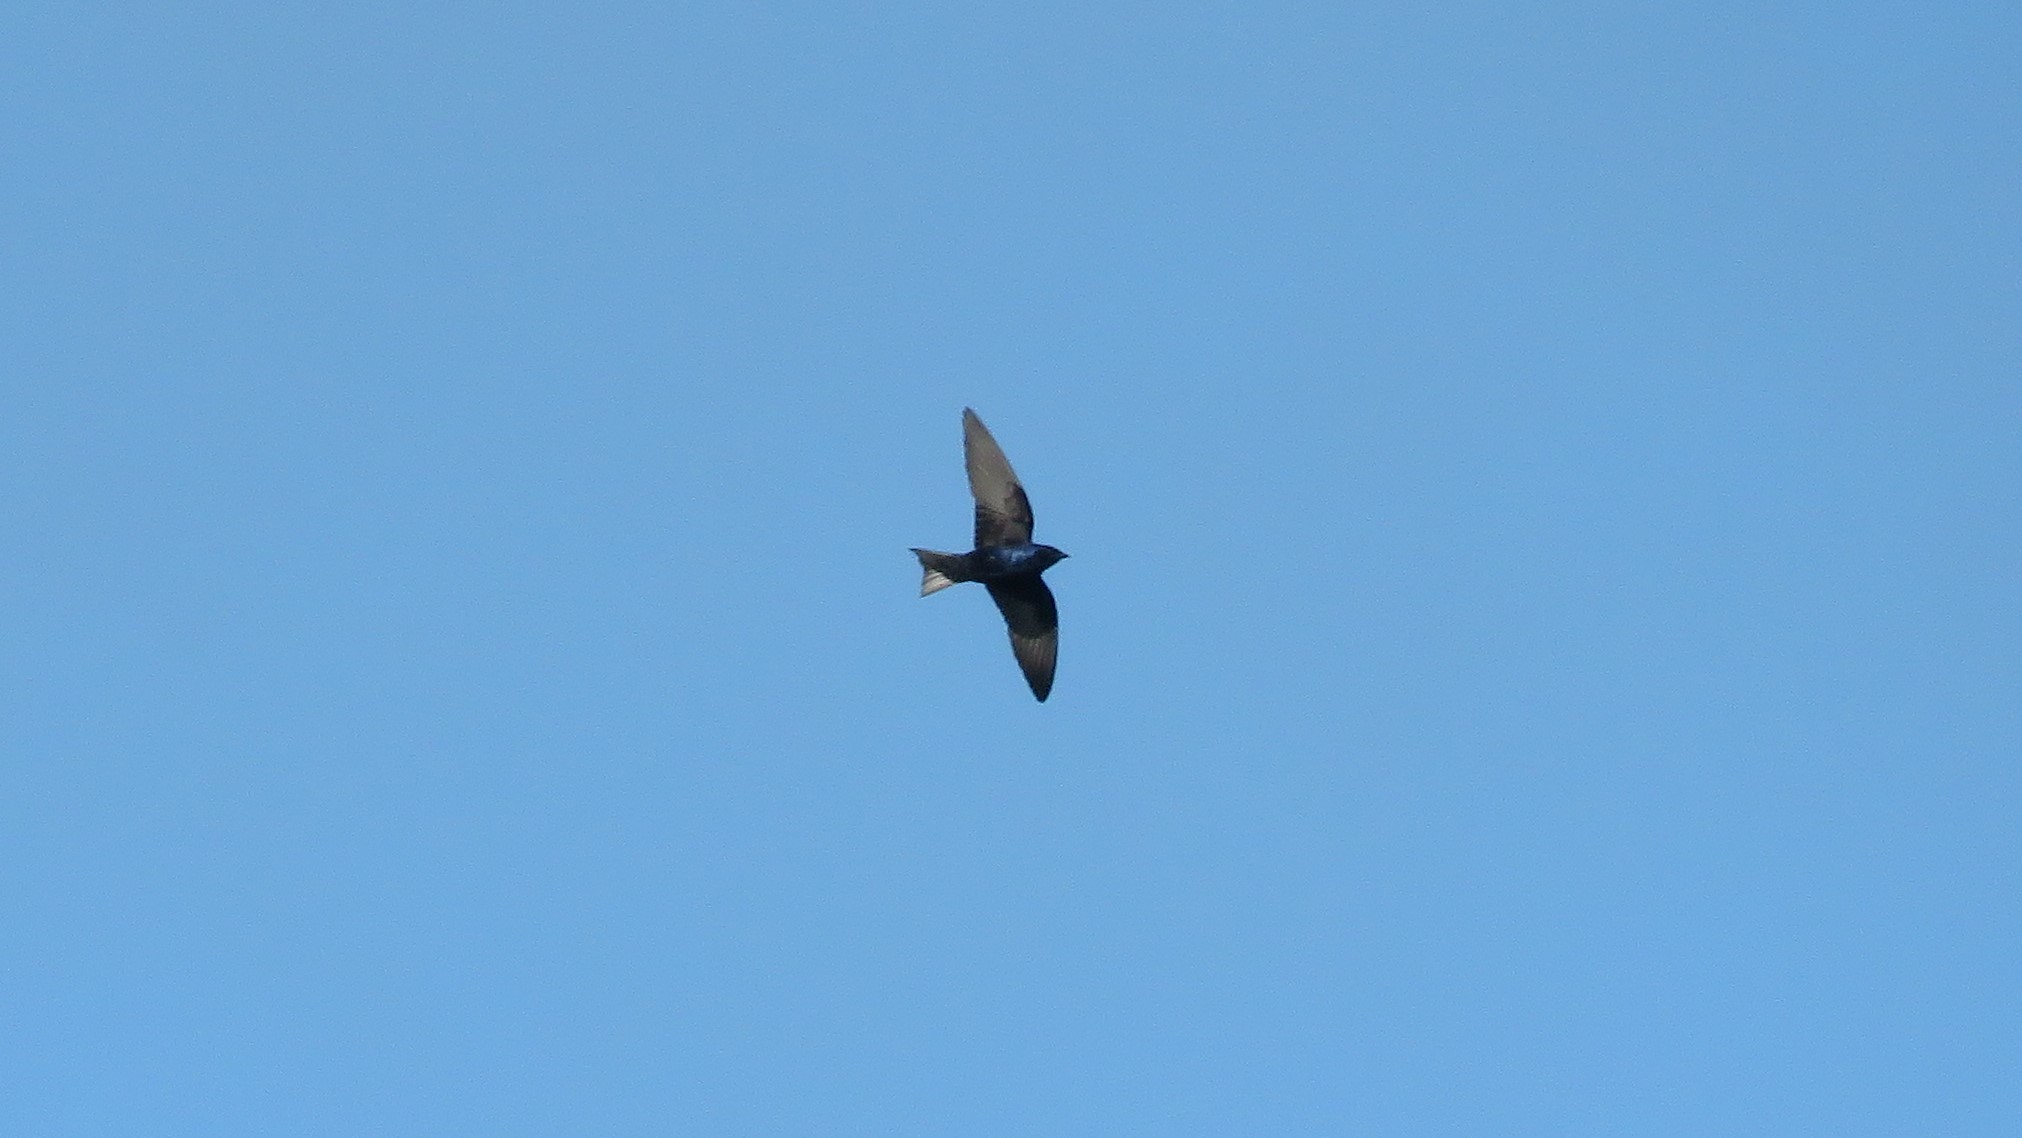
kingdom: Animalia
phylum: Chordata
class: Aves
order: Passeriformes
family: Hirundinidae
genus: Progne
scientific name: Progne subis
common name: Purple martin
